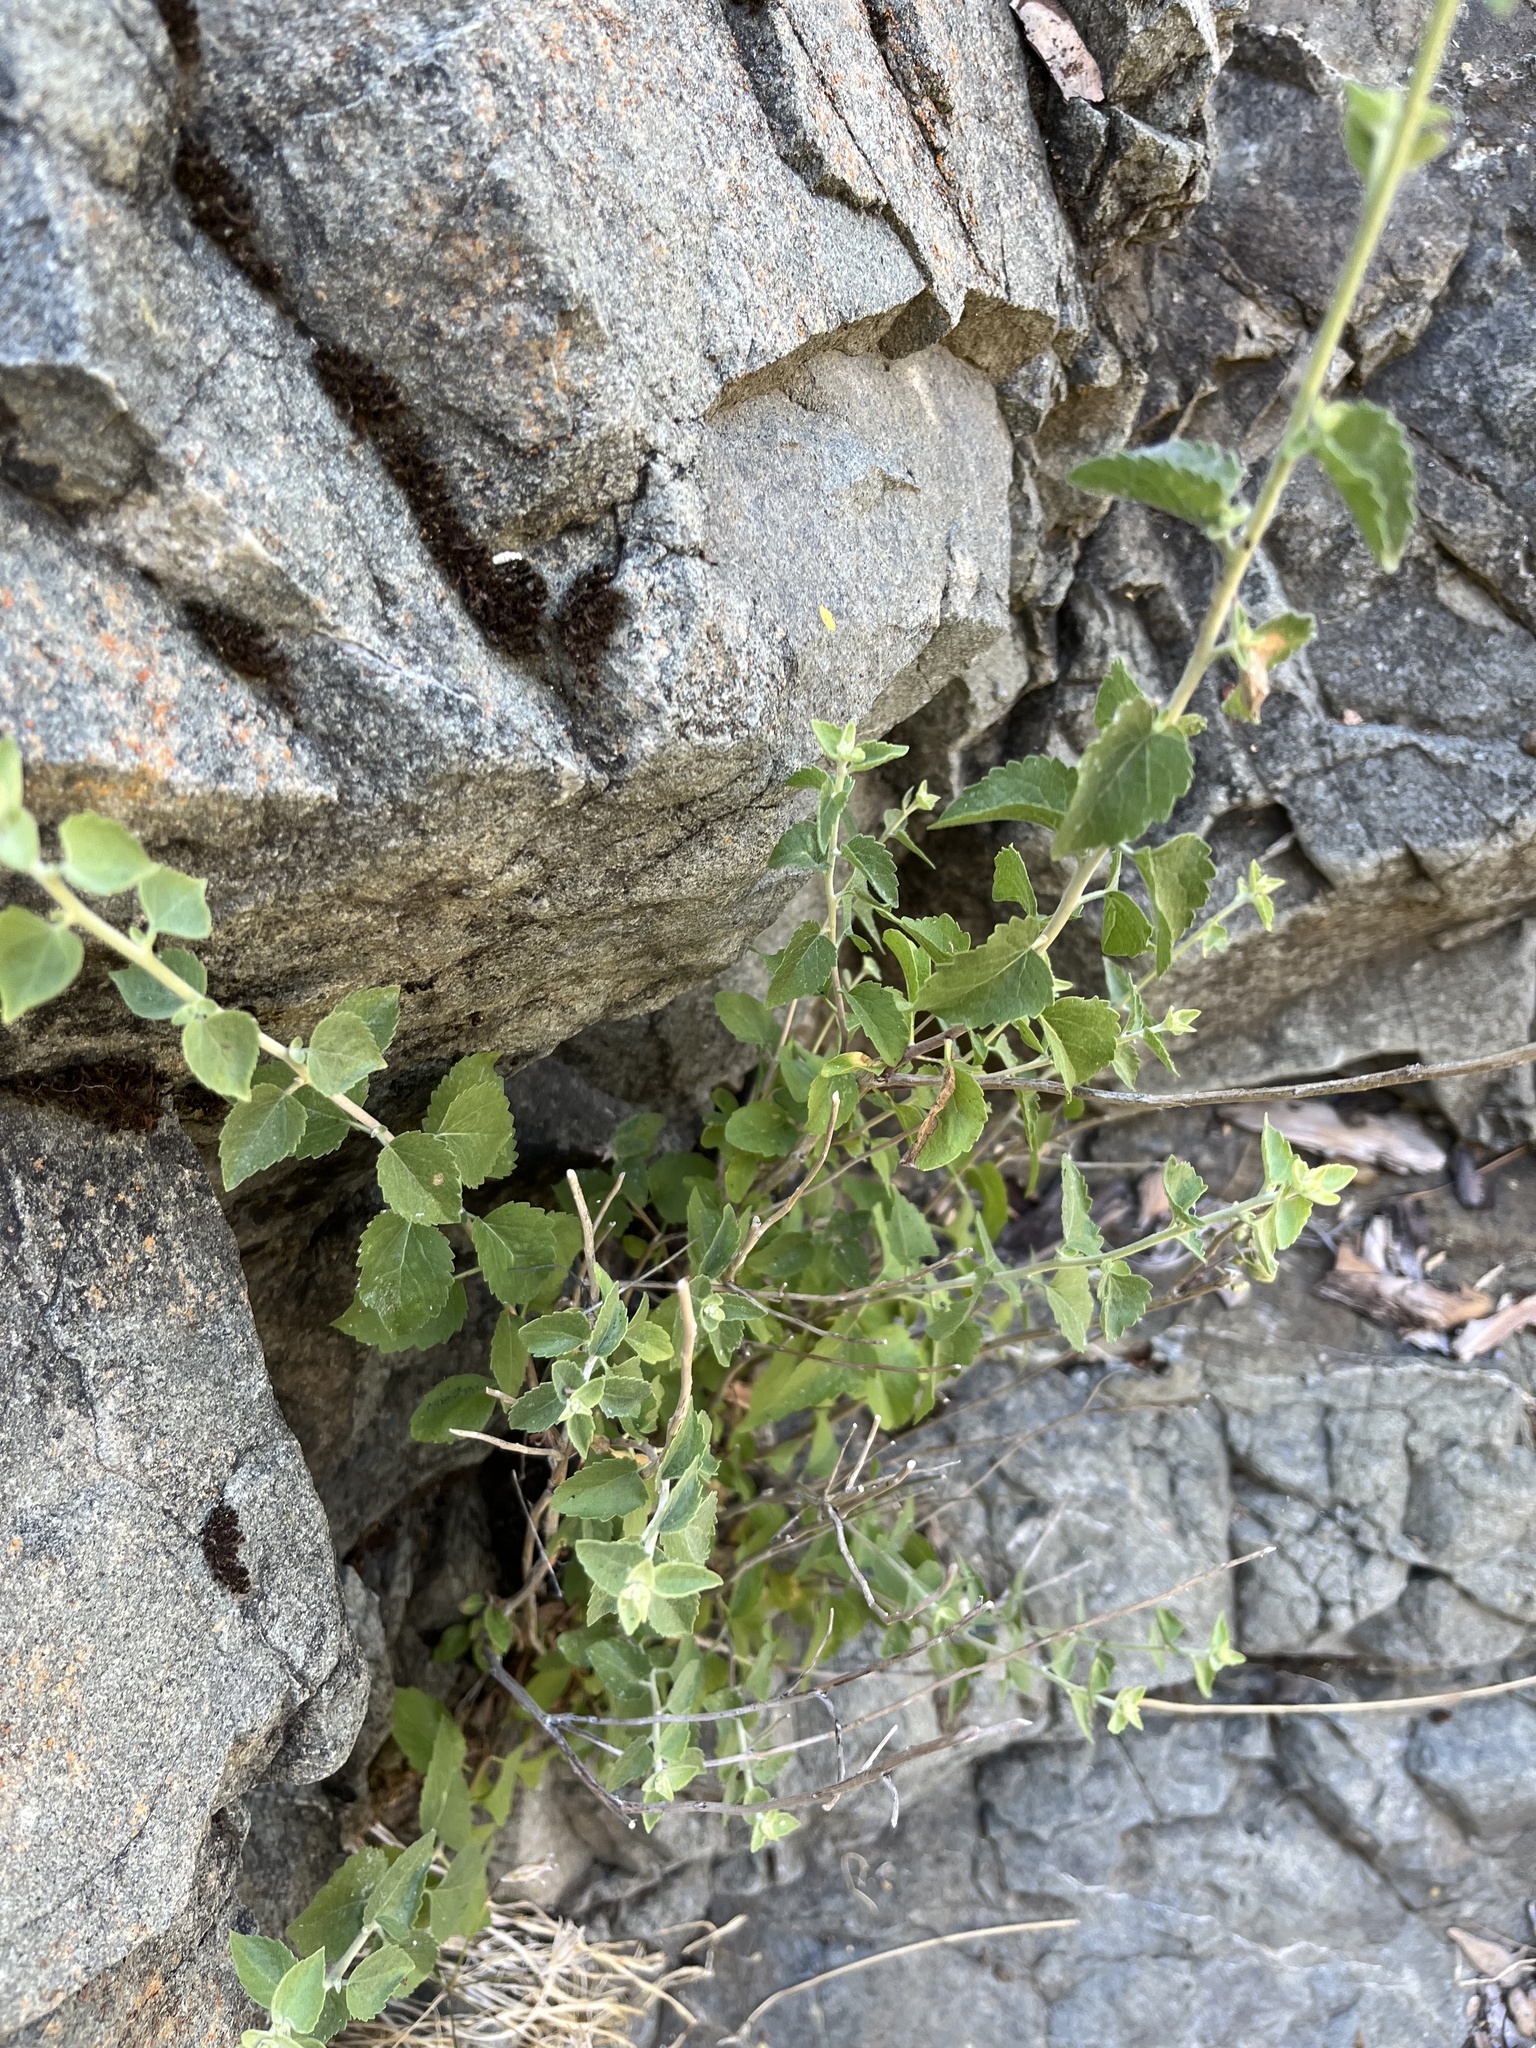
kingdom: Plantae
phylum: Tracheophyta
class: Magnoliopsida
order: Asterales
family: Asteraceae
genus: Brickellia
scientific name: Brickellia californica
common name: California brickellbush
